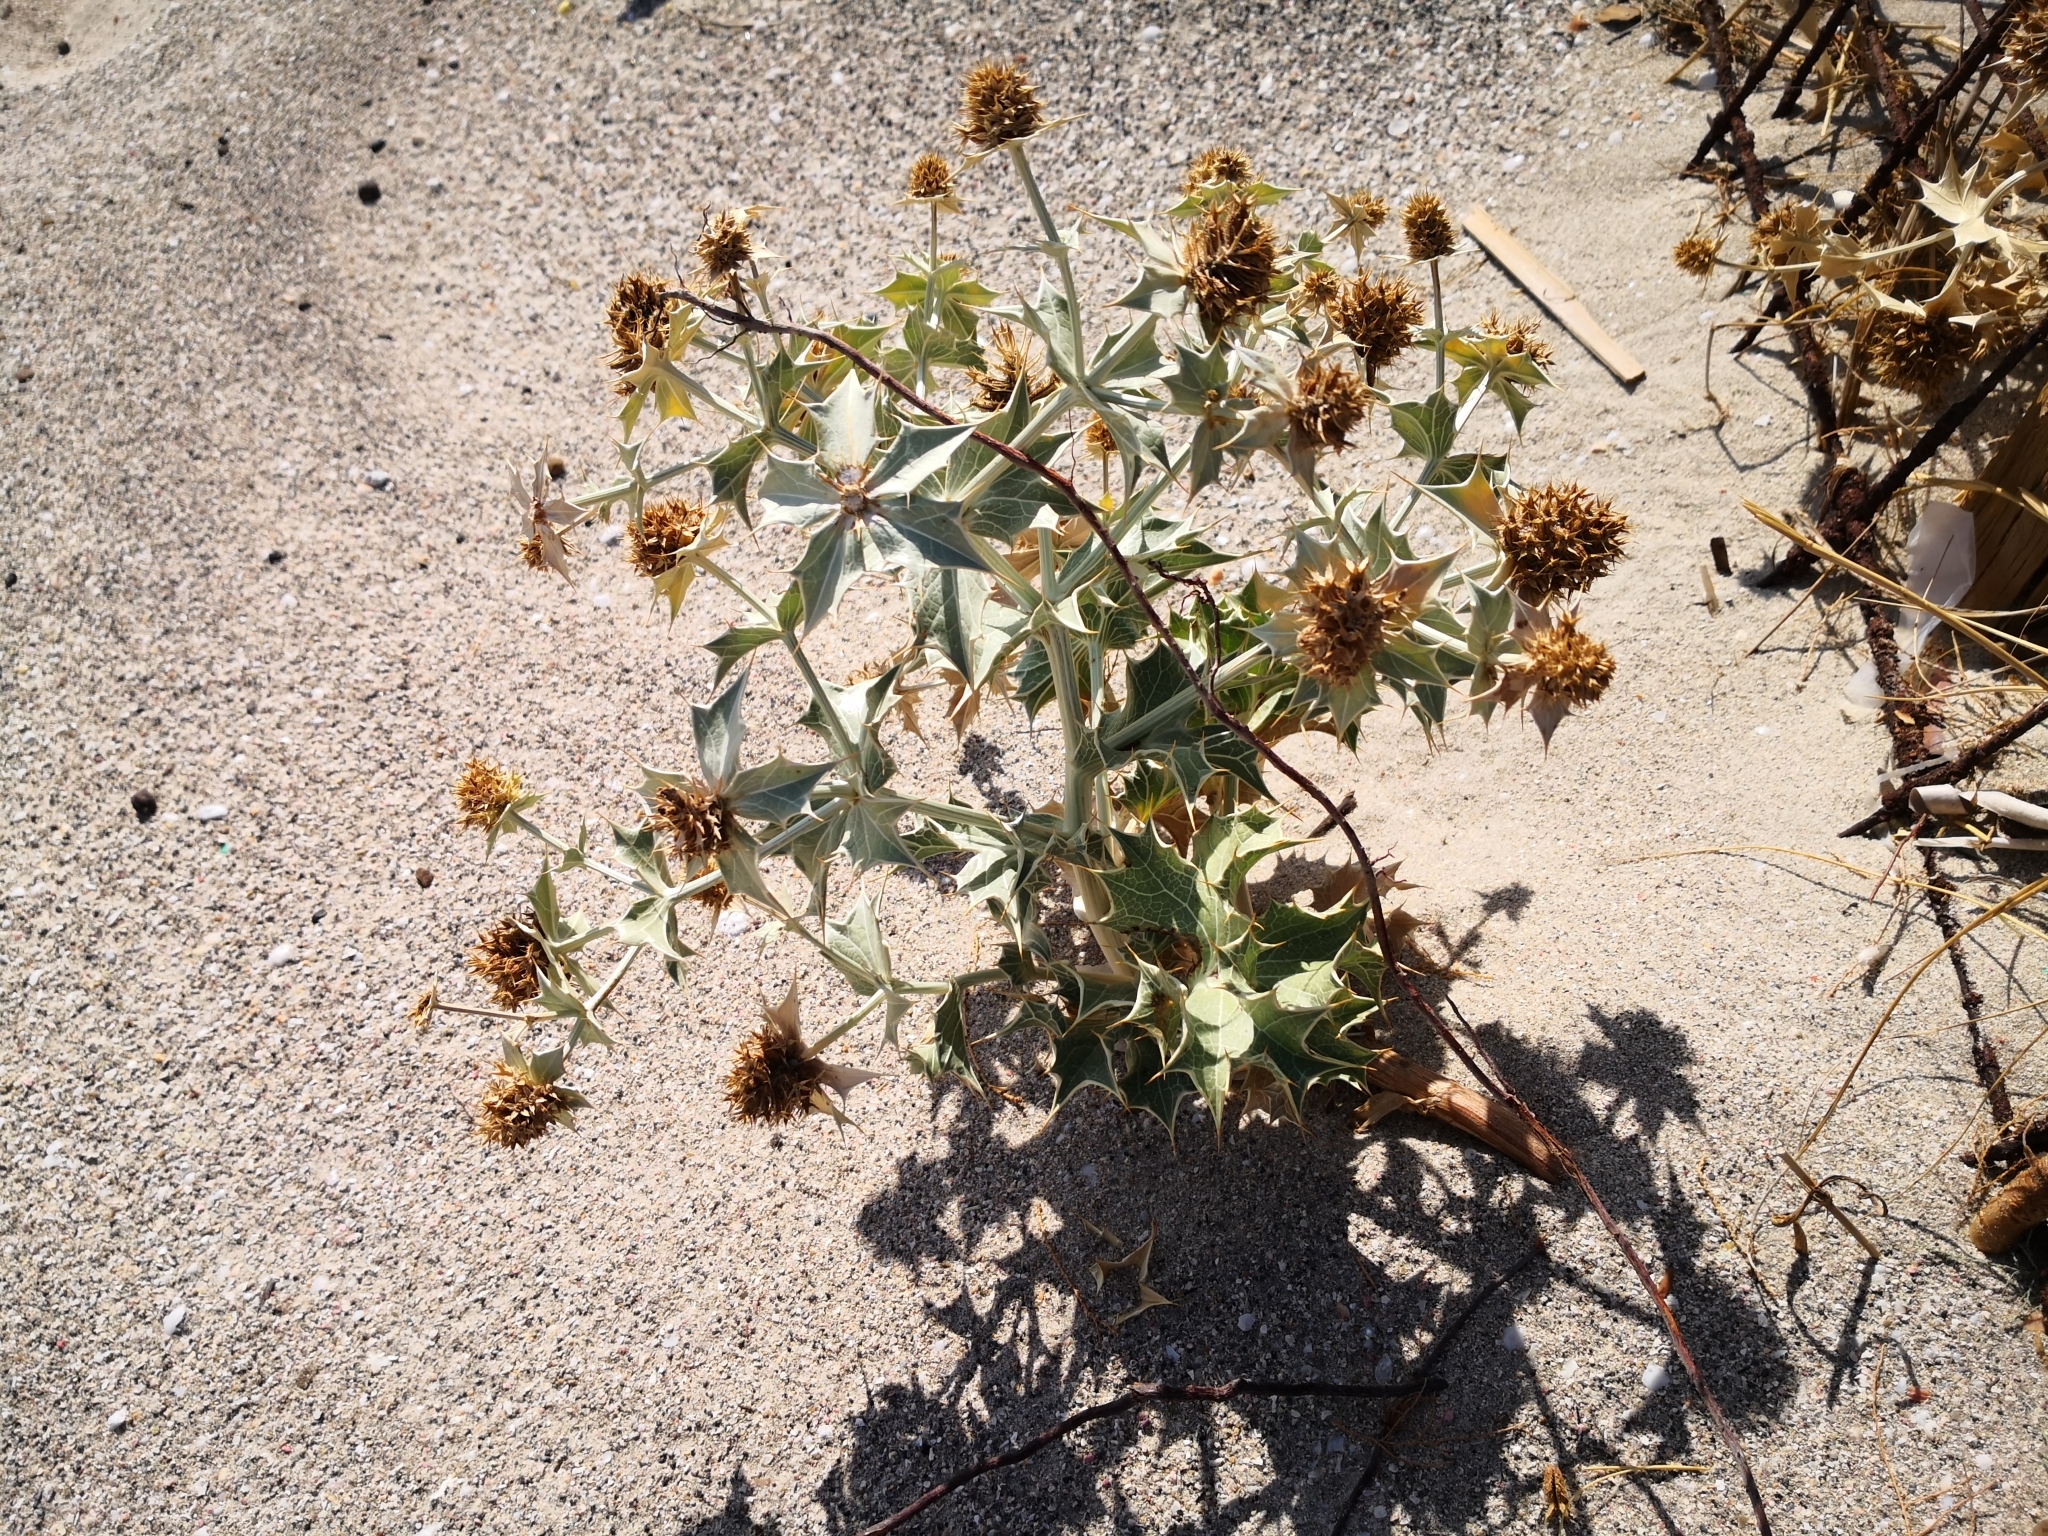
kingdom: Plantae
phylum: Tracheophyta
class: Magnoliopsida
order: Apiales
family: Apiaceae
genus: Eryngium
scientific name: Eryngium maritimum
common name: Sea-holly
